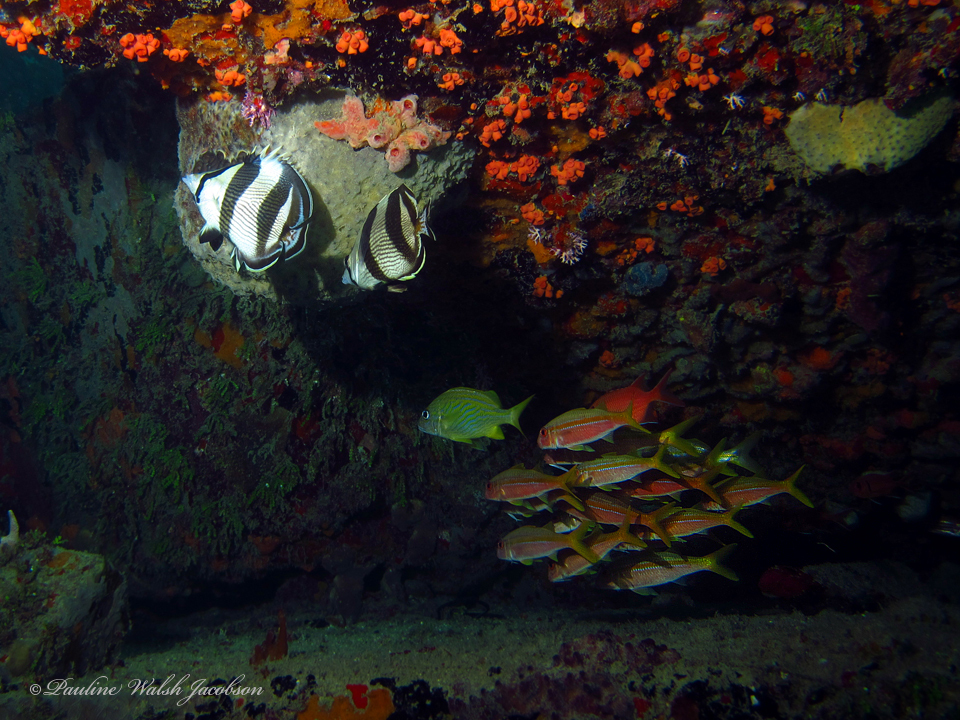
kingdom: Animalia
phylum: Chordata
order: Perciformes
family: Mullidae
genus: Mulloidichthys
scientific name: Mulloidichthys martinicus
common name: Yellow goatfish
